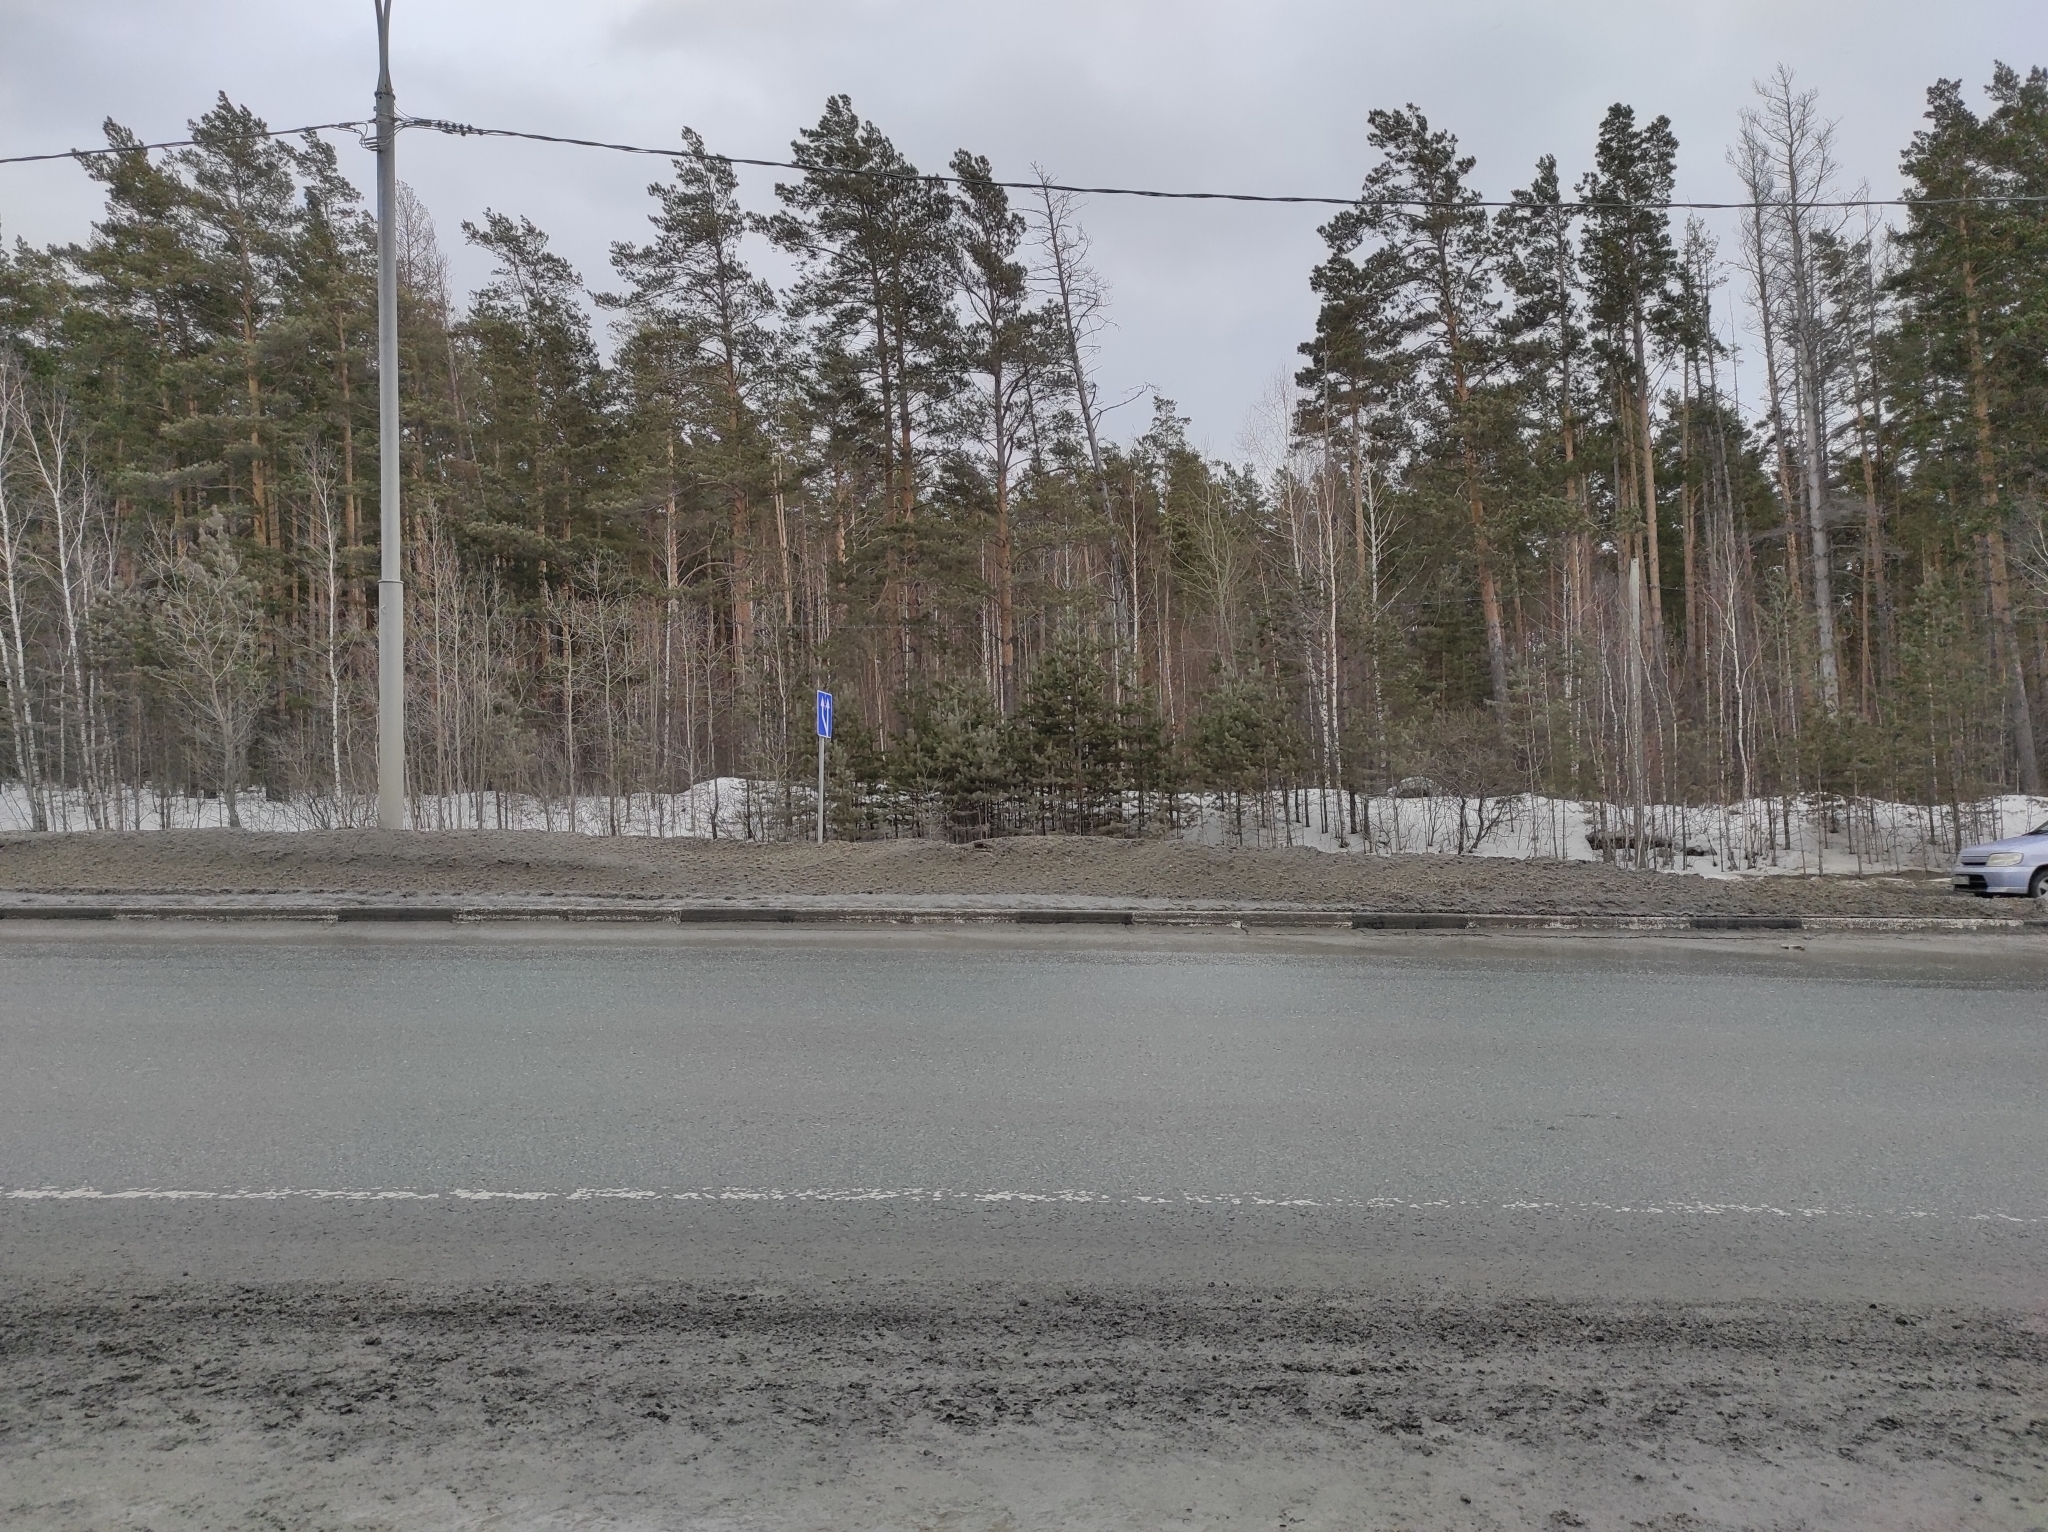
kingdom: Plantae
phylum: Tracheophyta
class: Pinopsida
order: Pinales
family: Pinaceae
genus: Pinus
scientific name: Pinus sylvestris
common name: Scots pine
